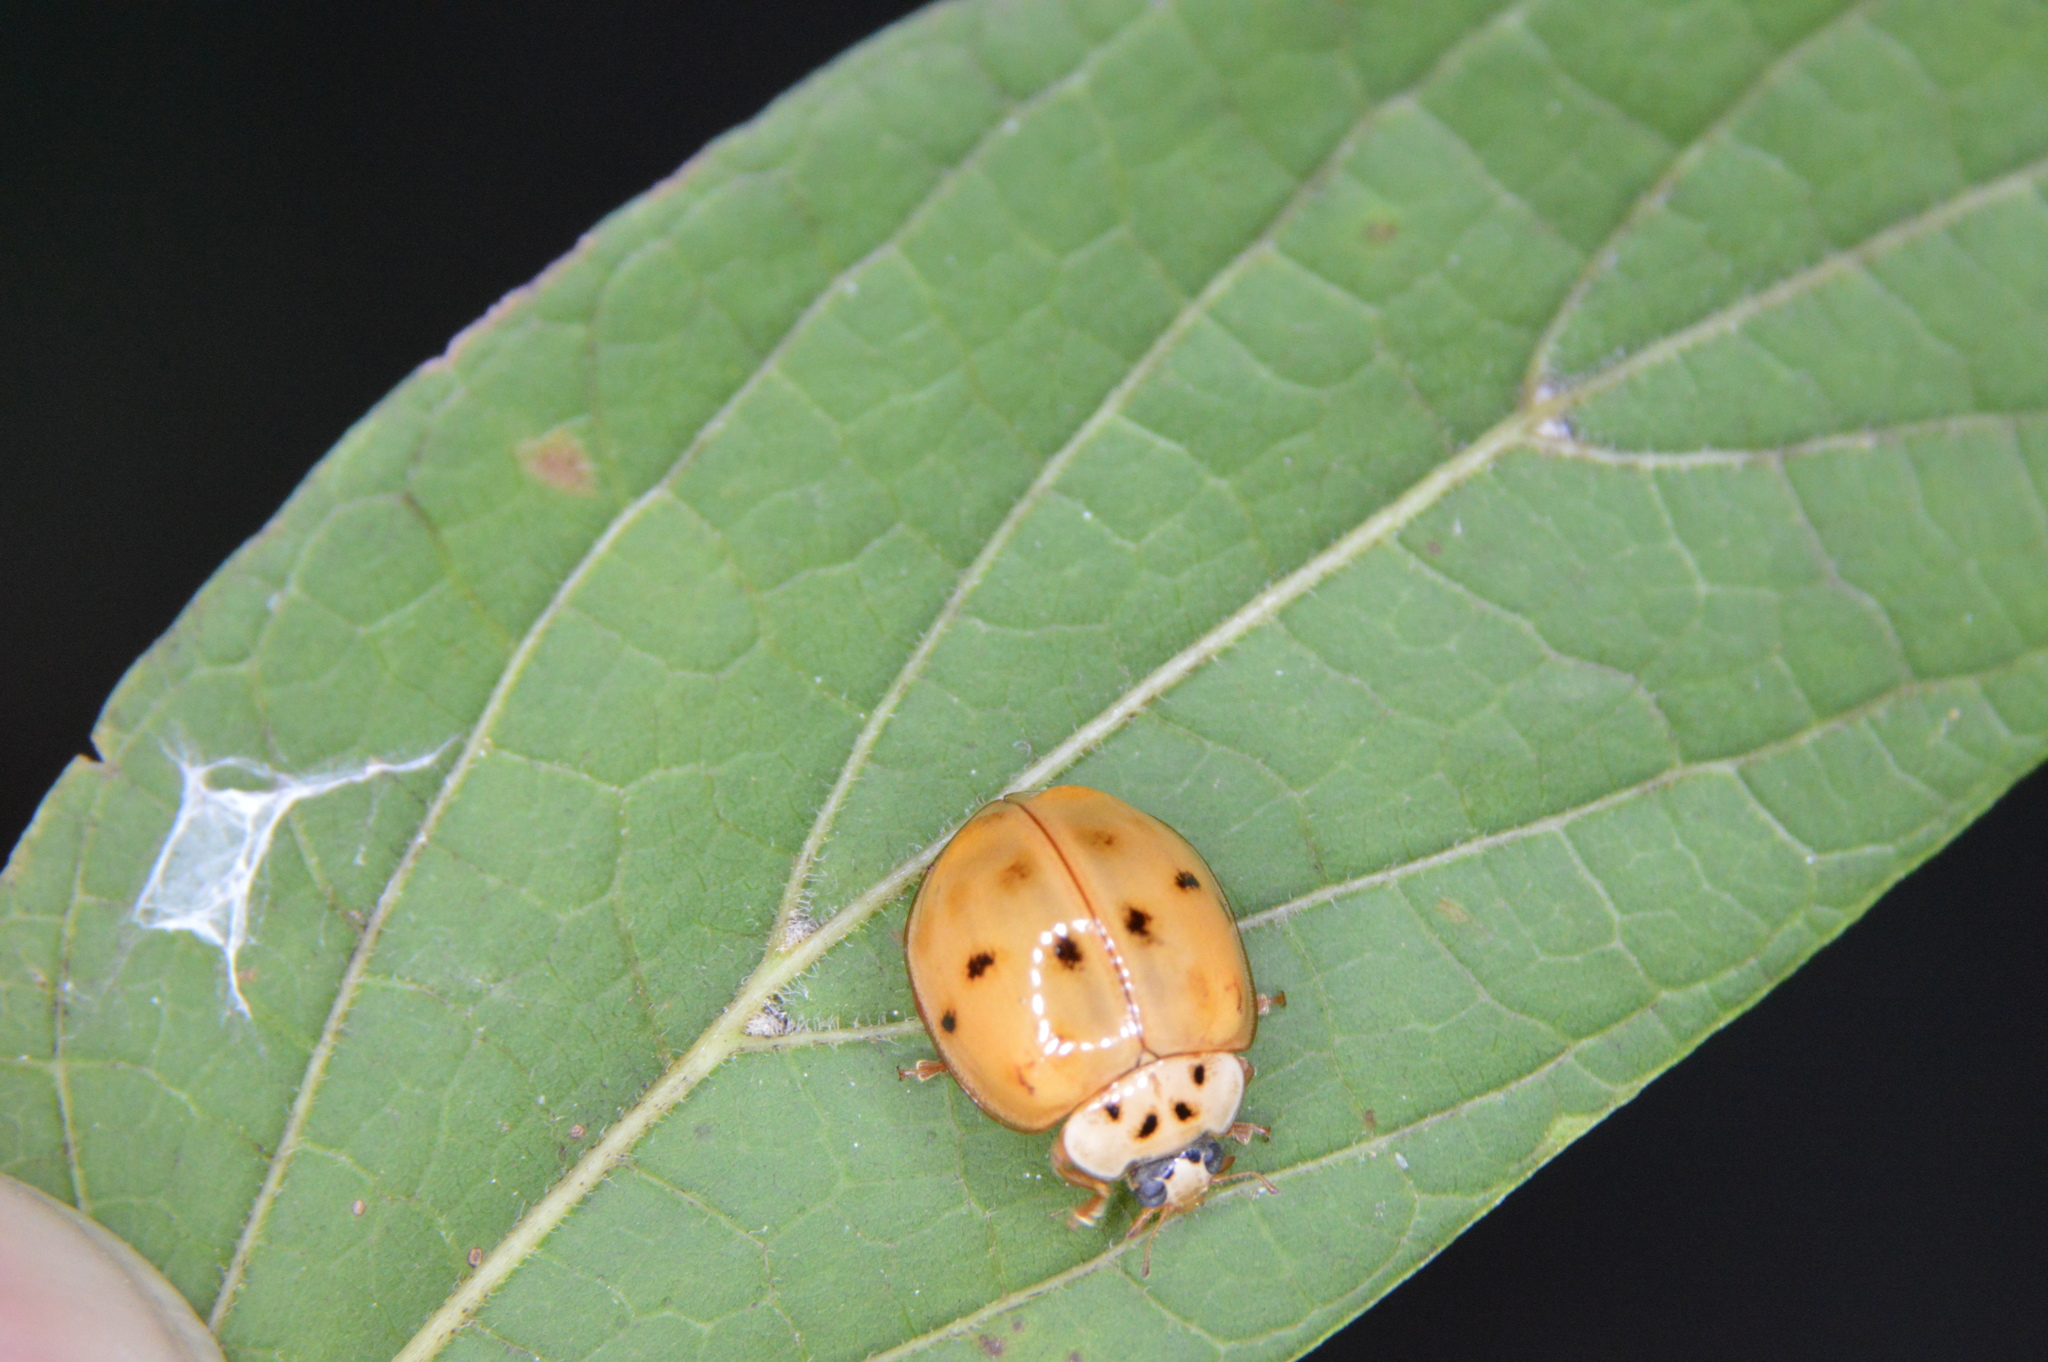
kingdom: Animalia
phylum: Arthropoda
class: Insecta
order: Coleoptera
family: Coccinellidae
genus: Harmonia
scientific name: Harmonia axyridis
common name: Harlequin ladybird
